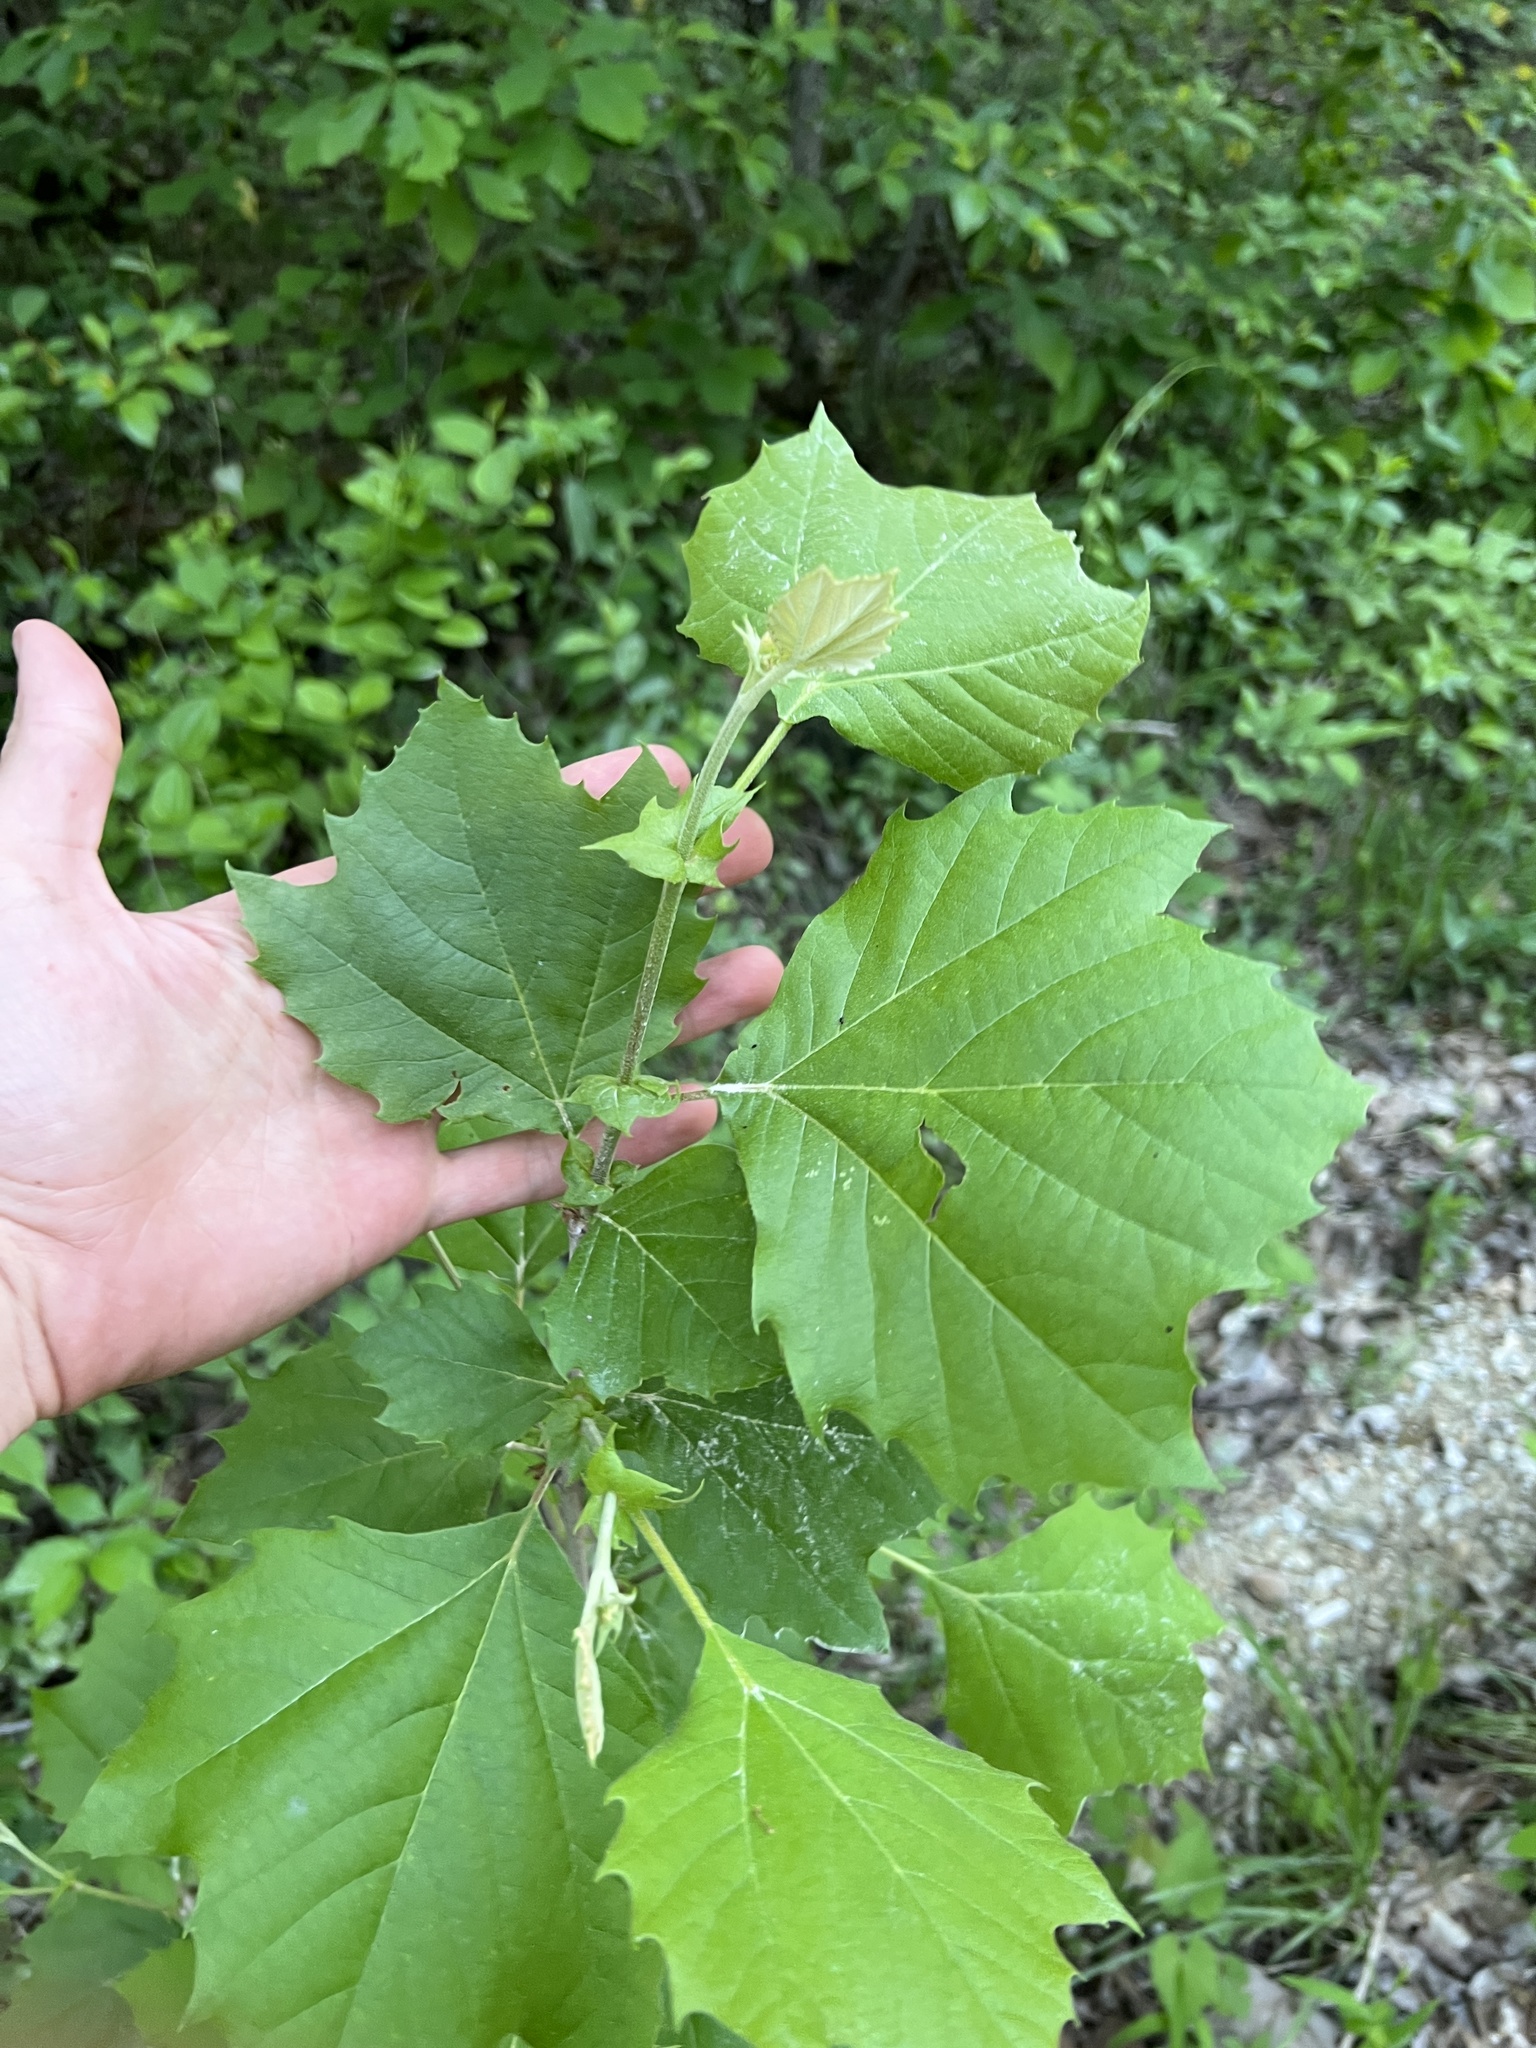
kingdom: Plantae
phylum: Tracheophyta
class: Magnoliopsida
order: Proteales
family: Platanaceae
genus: Platanus
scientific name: Platanus occidentalis
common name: American sycamore
